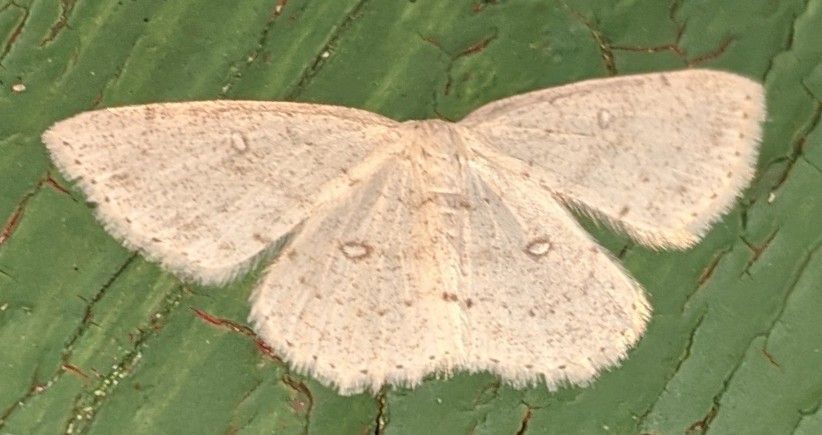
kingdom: Animalia
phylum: Arthropoda
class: Insecta
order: Lepidoptera
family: Geometridae
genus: Cyclophora
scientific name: Cyclophora pendulinaria
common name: Sweet fern geometer
